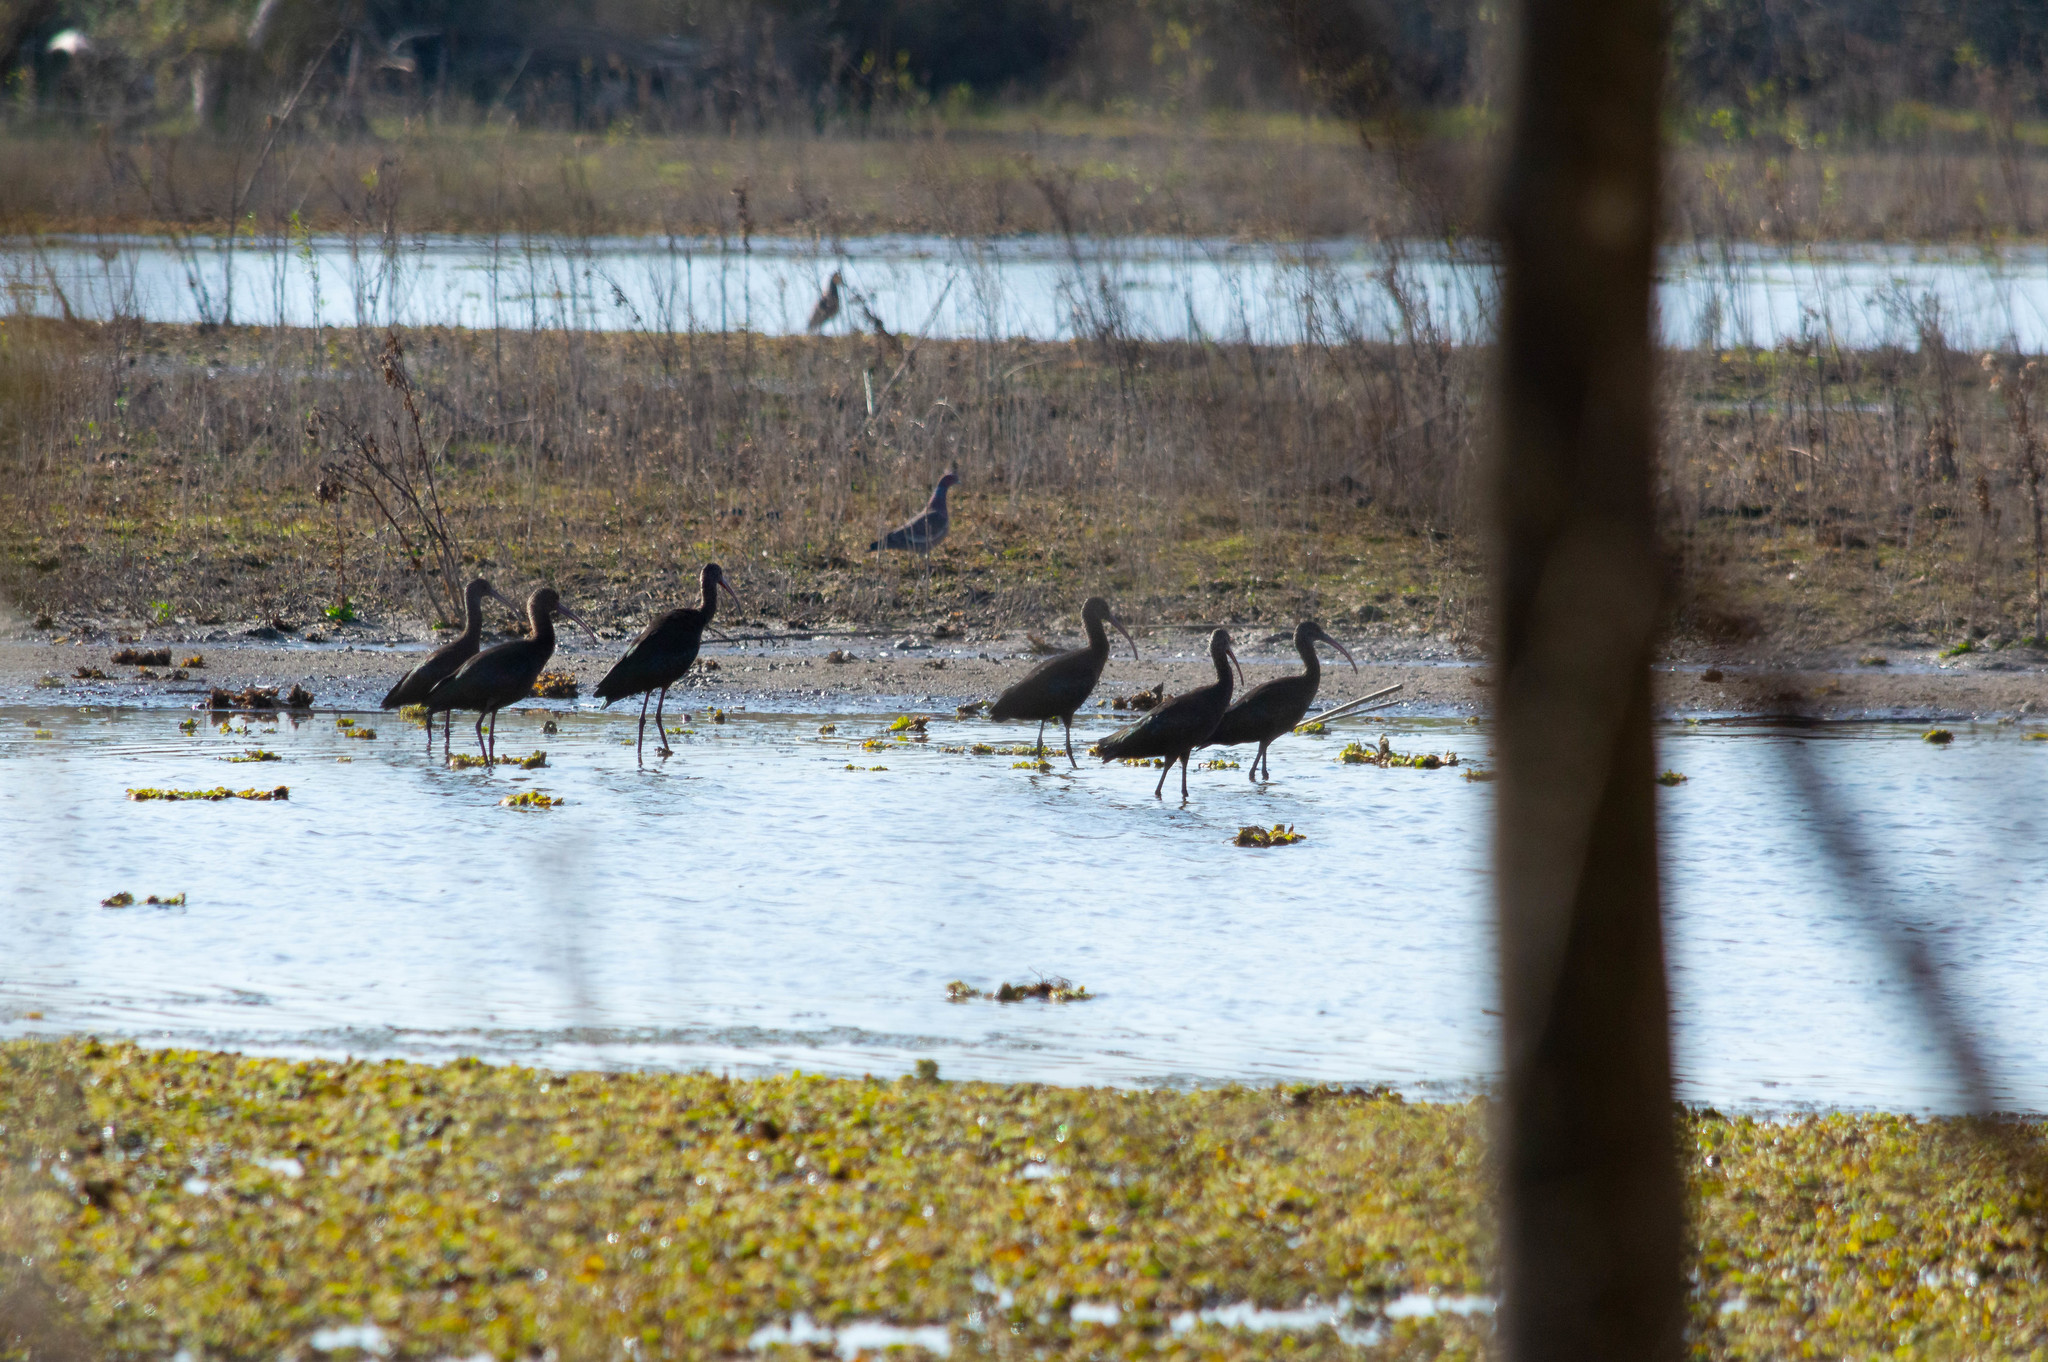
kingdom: Animalia
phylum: Chordata
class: Aves
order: Pelecaniformes
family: Threskiornithidae
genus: Plegadis
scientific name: Plegadis chihi
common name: White-faced ibis
